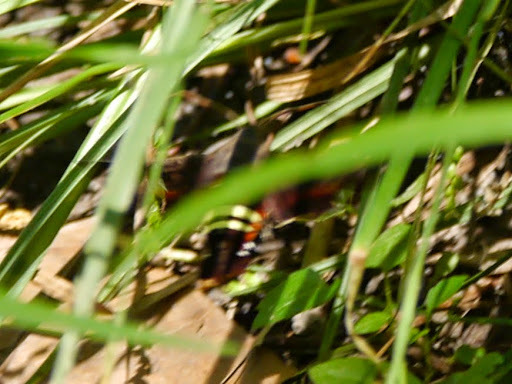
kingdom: Animalia
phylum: Arthropoda
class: Insecta
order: Lepidoptera
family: Sphingidae
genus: Amphion
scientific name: Amphion floridensis
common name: Nessus sphinx
